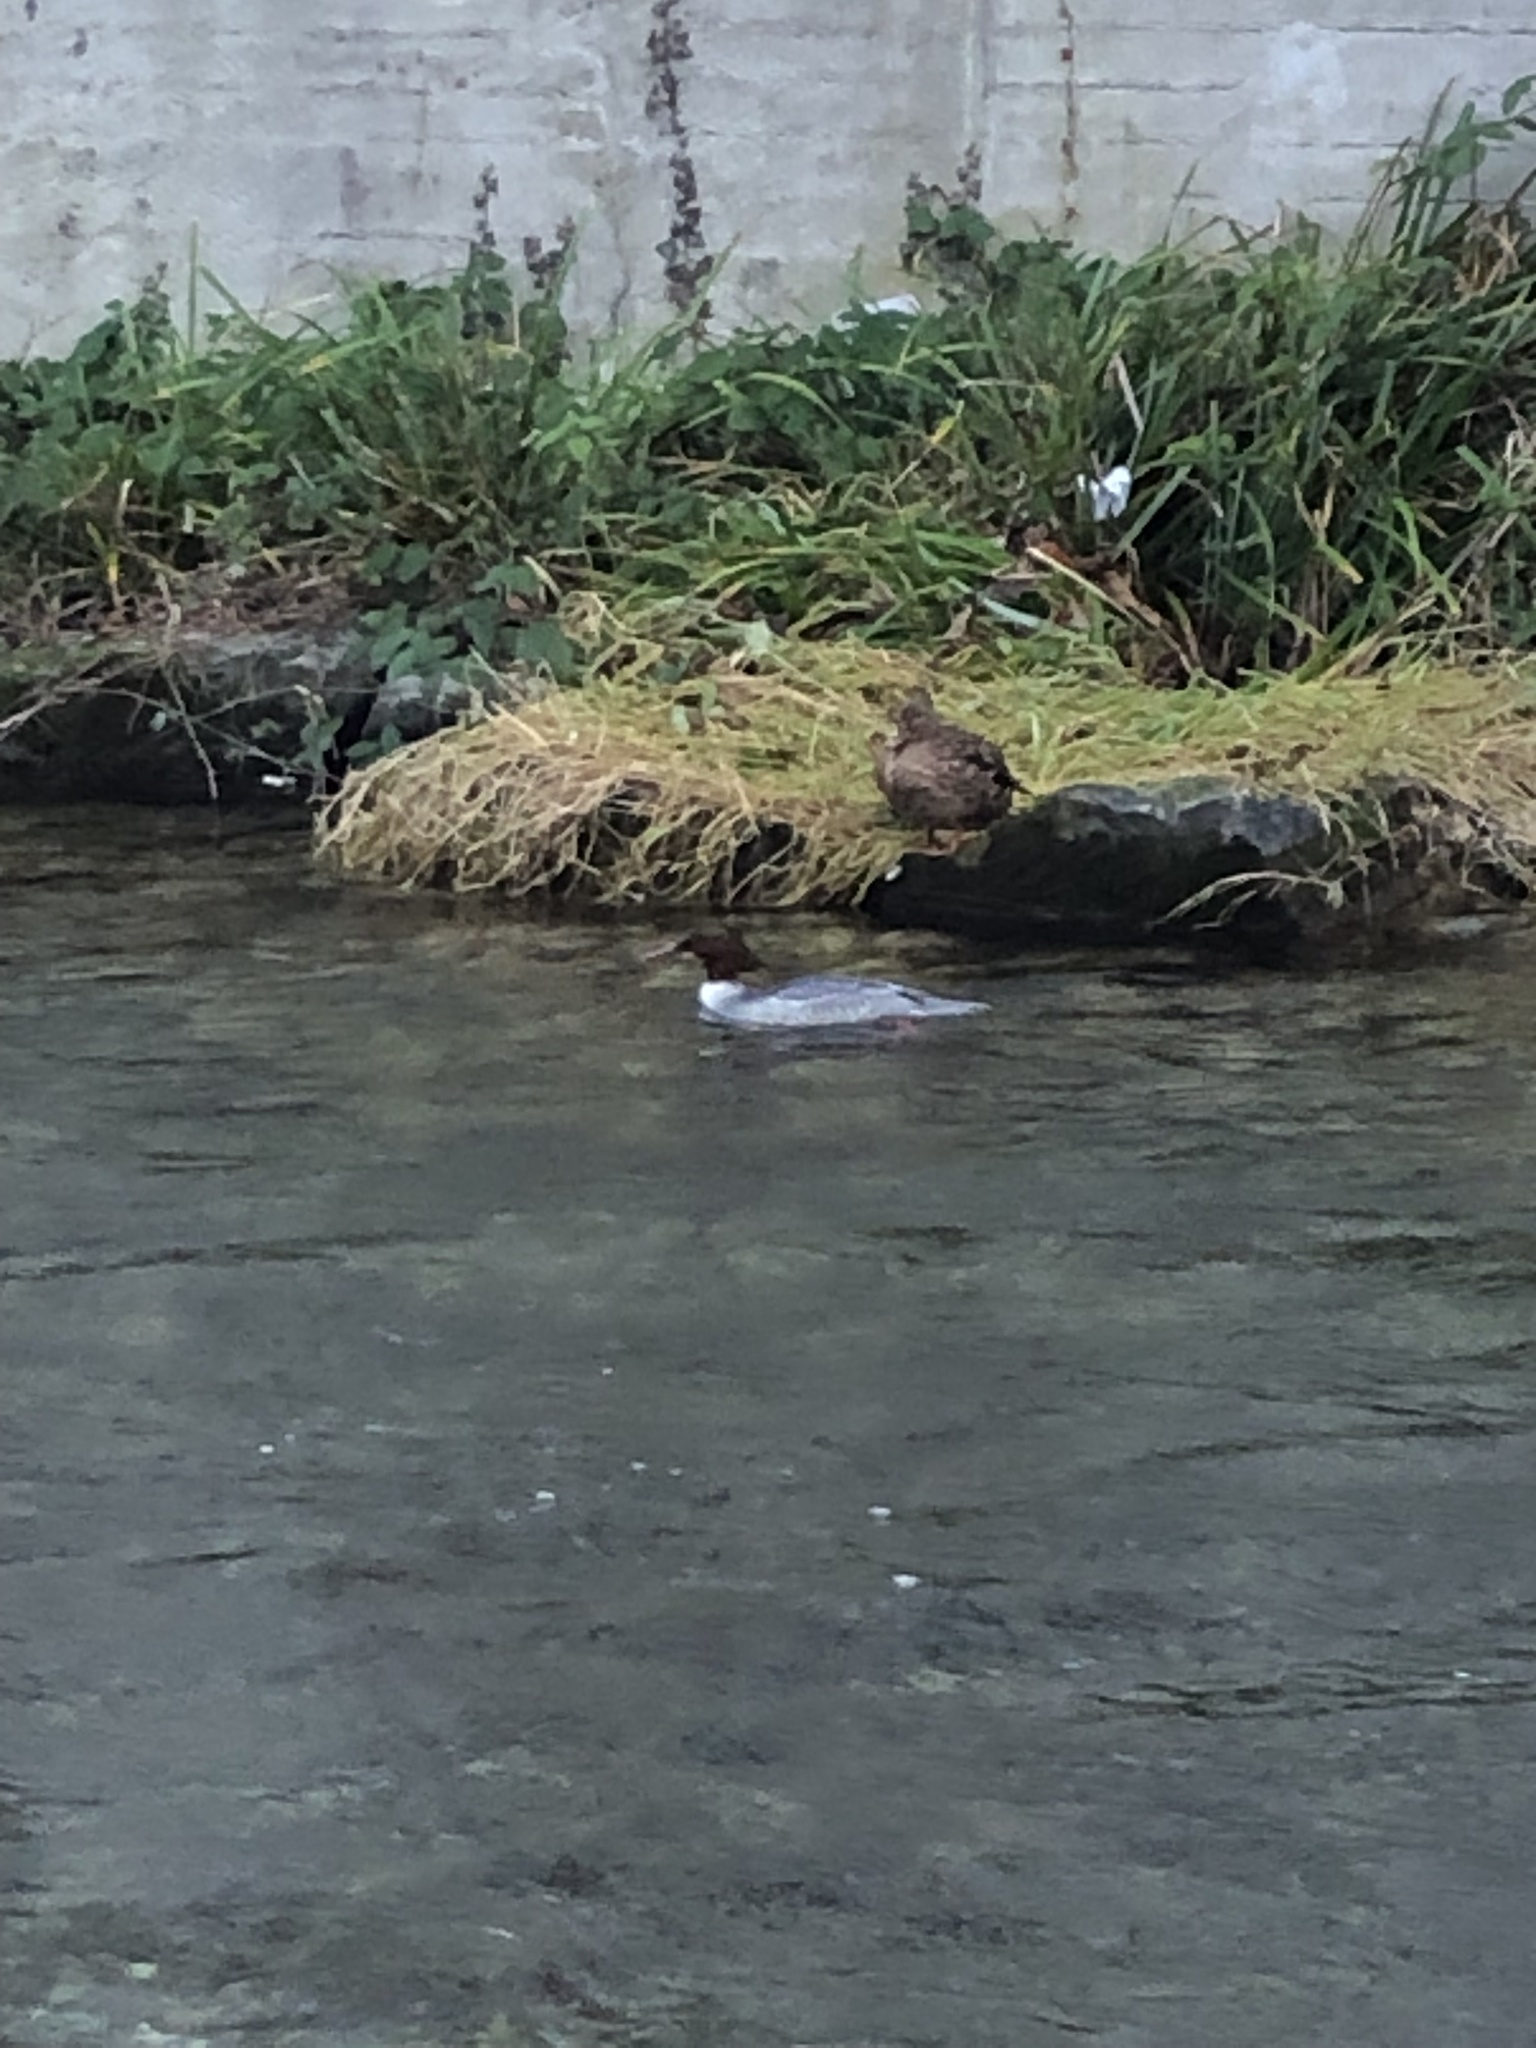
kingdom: Animalia
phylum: Chordata
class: Aves
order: Anseriformes
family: Anatidae
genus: Mergus
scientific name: Mergus merganser
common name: Common merganser
